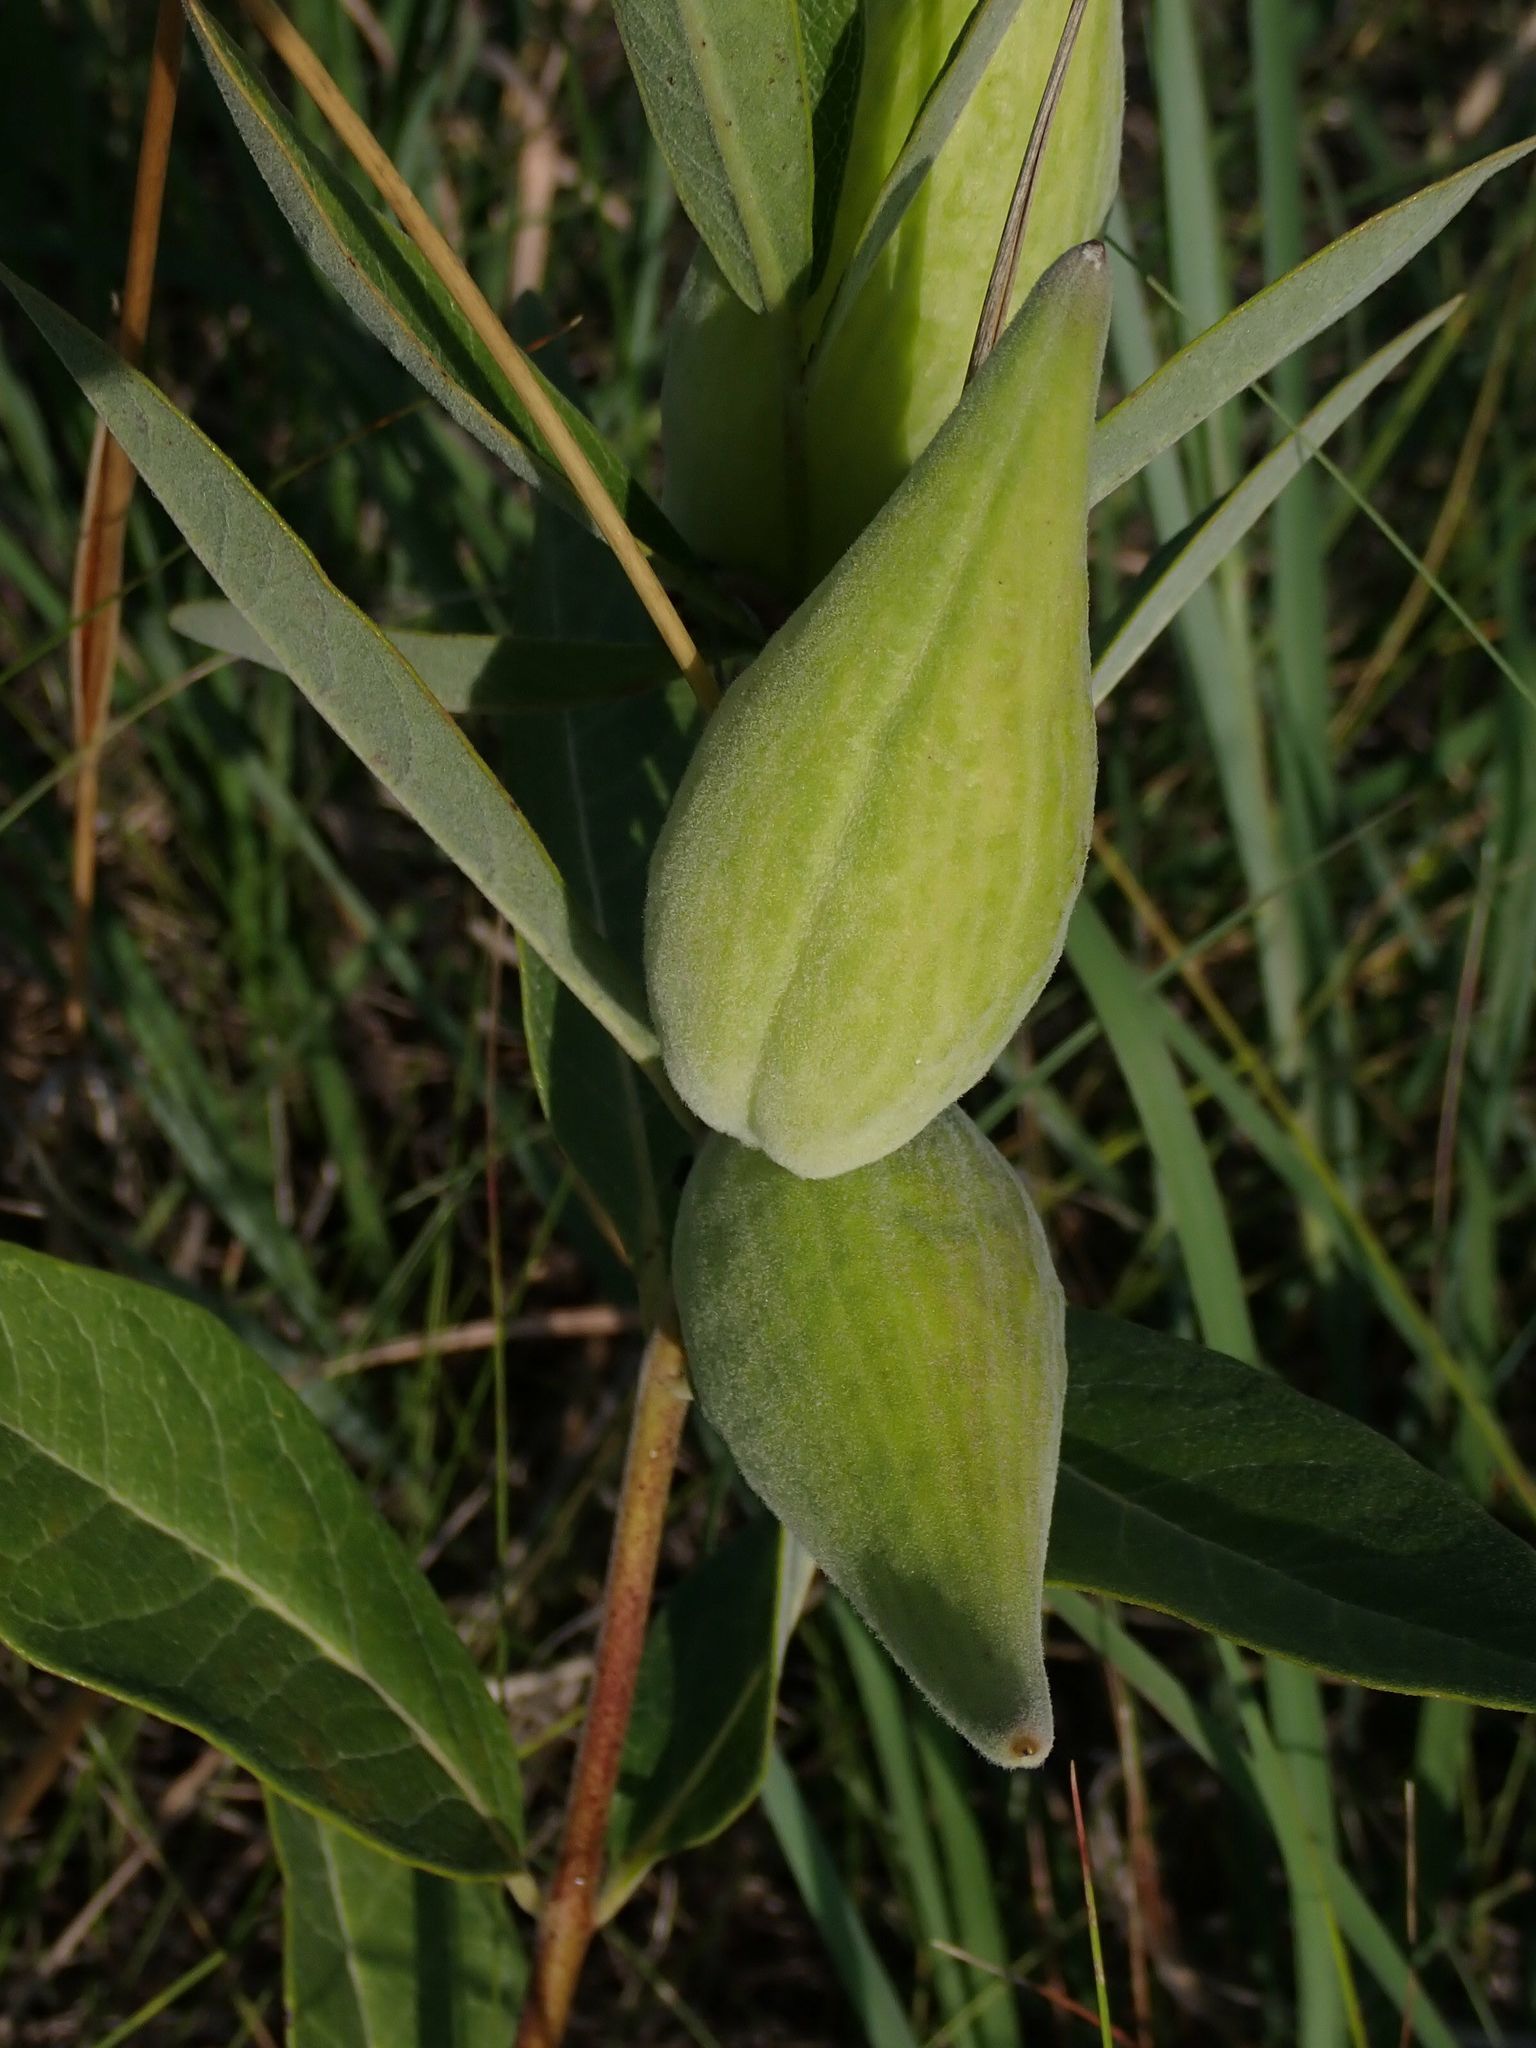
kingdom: Plantae
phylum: Tracheophyta
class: Magnoliopsida
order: Gentianales
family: Apocynaceae
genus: Asclepias
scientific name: Asclepias ovalifolia
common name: Dwarf milkweed
